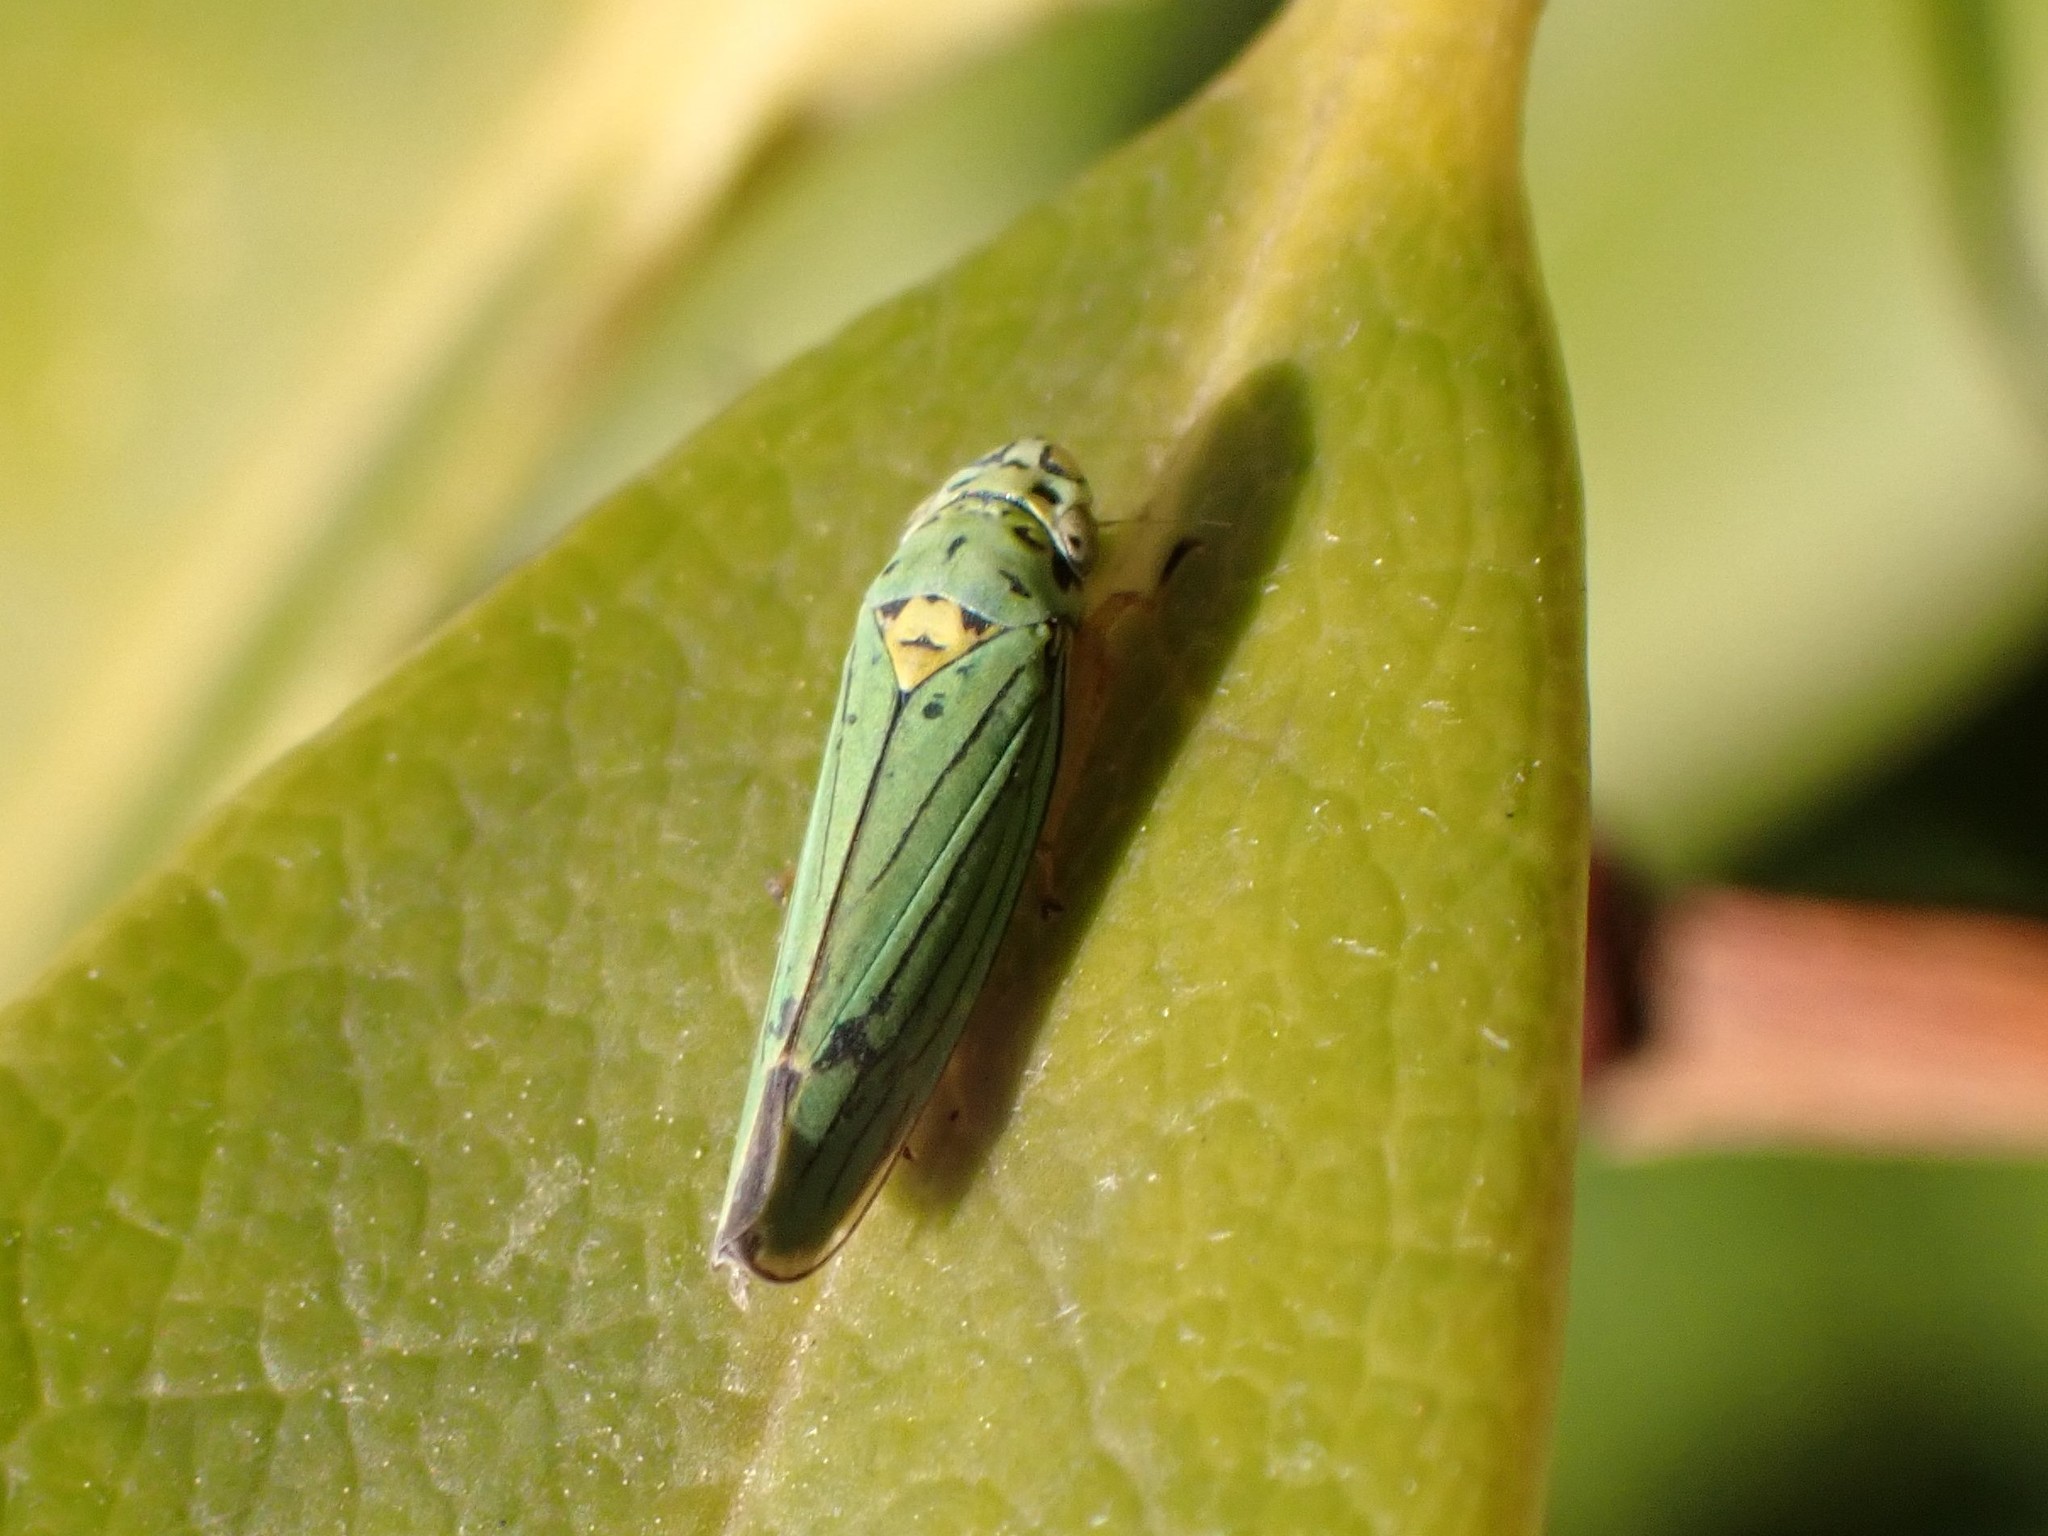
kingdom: Animalia
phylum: Arthropoda
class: Insecta
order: Hemiptera
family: Cicadellidae
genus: Graphocephala
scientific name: Graphocephala atropunctata
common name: Blue-green sharpshooter
